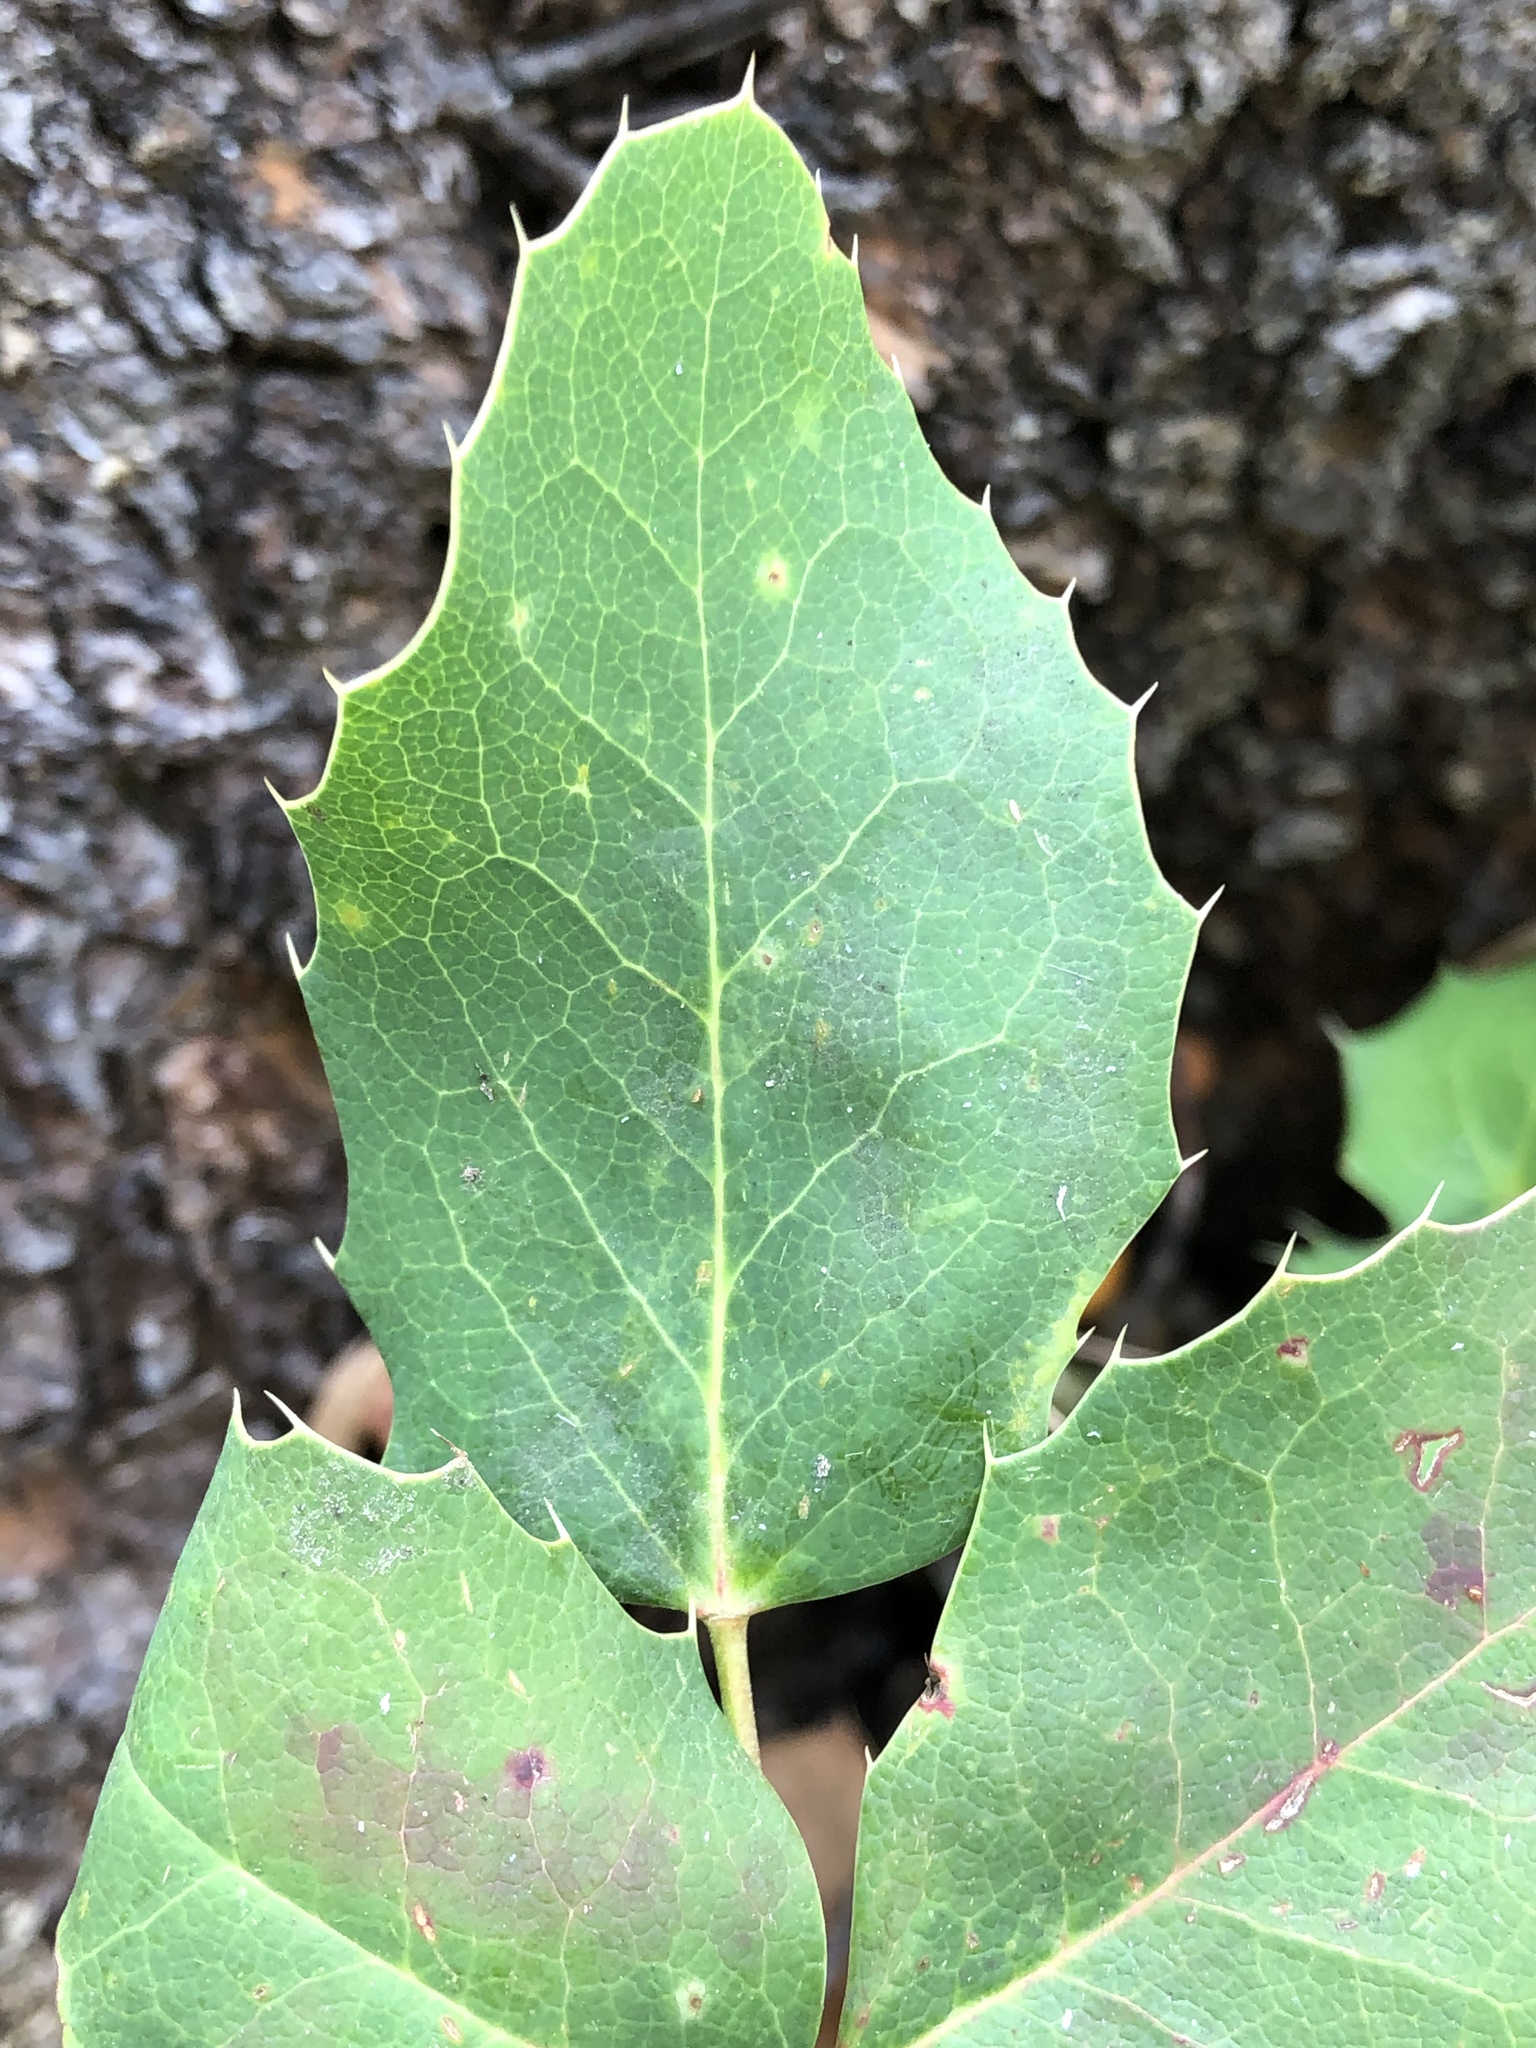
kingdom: Plantae
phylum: Tracheophyta
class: Magnoliopsida
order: Ranunculales
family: Berberidaceae
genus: Mahonia
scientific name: Mahonia repens
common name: Creeping oregon-grape
